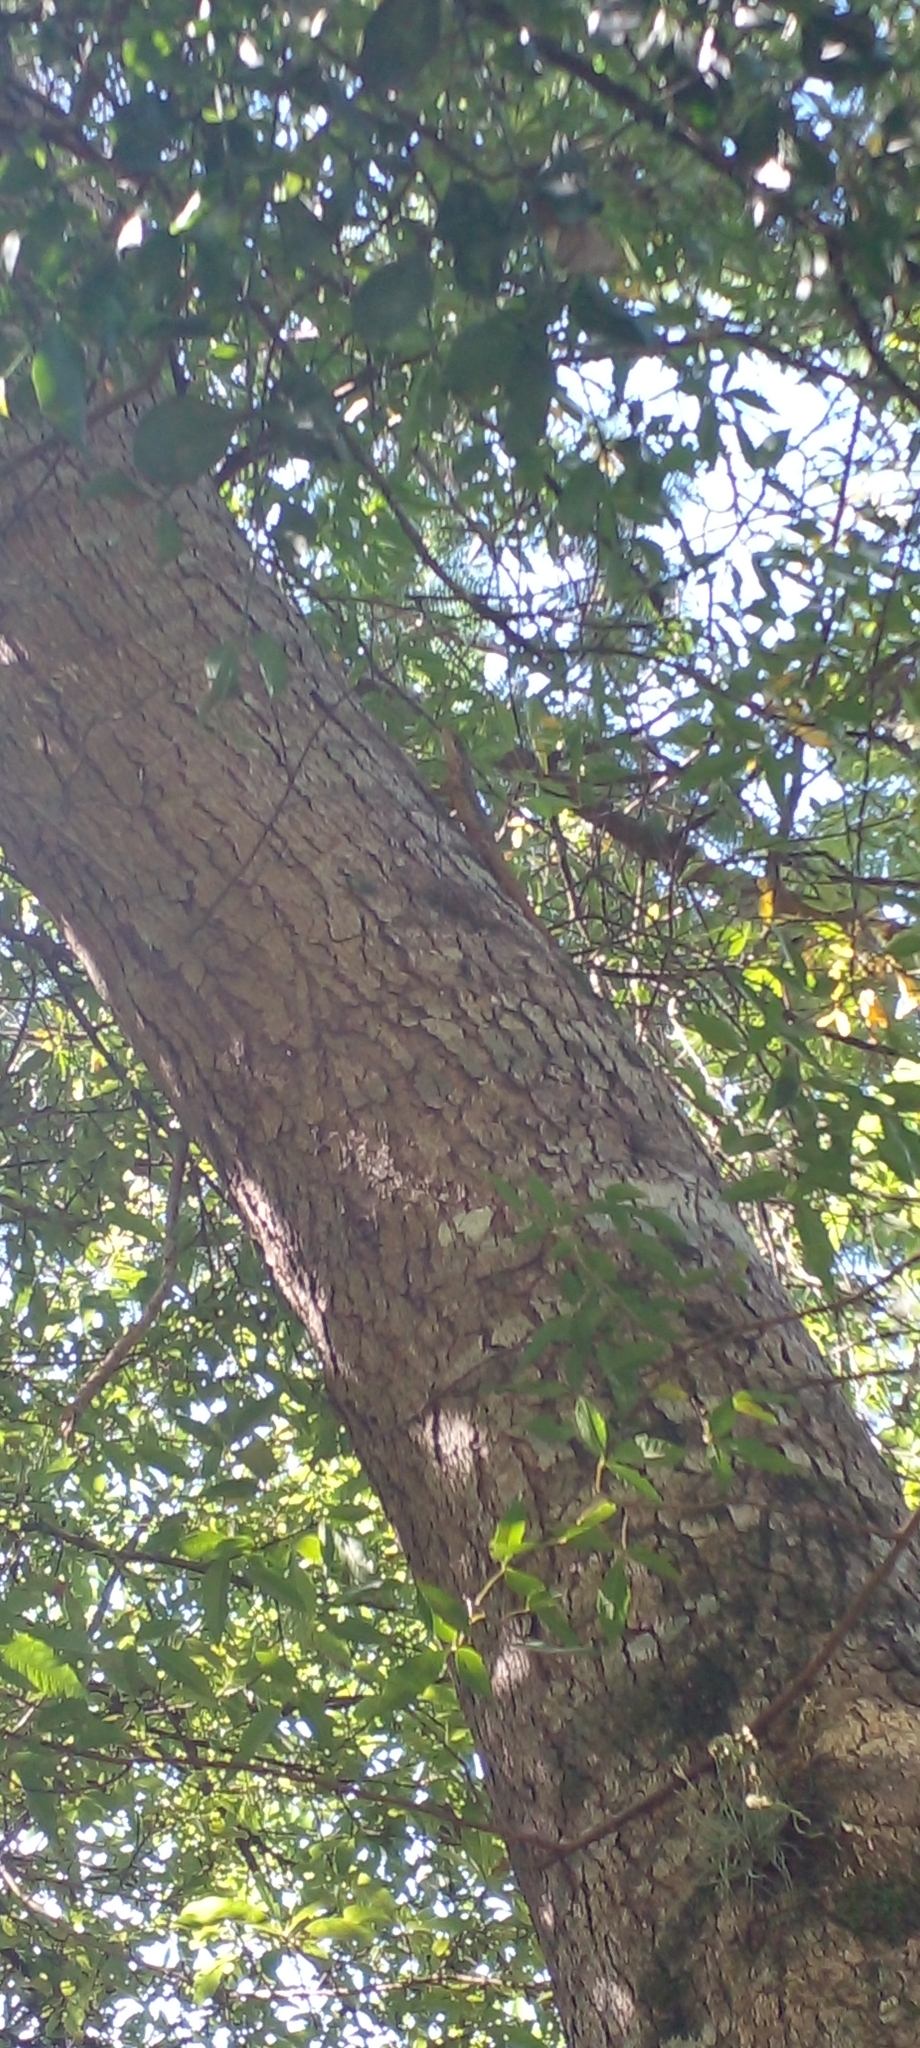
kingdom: Animalia
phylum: Chordata
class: Squamata
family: Tropiduridae
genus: Tropidurus
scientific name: Tropidurus catalanensis
